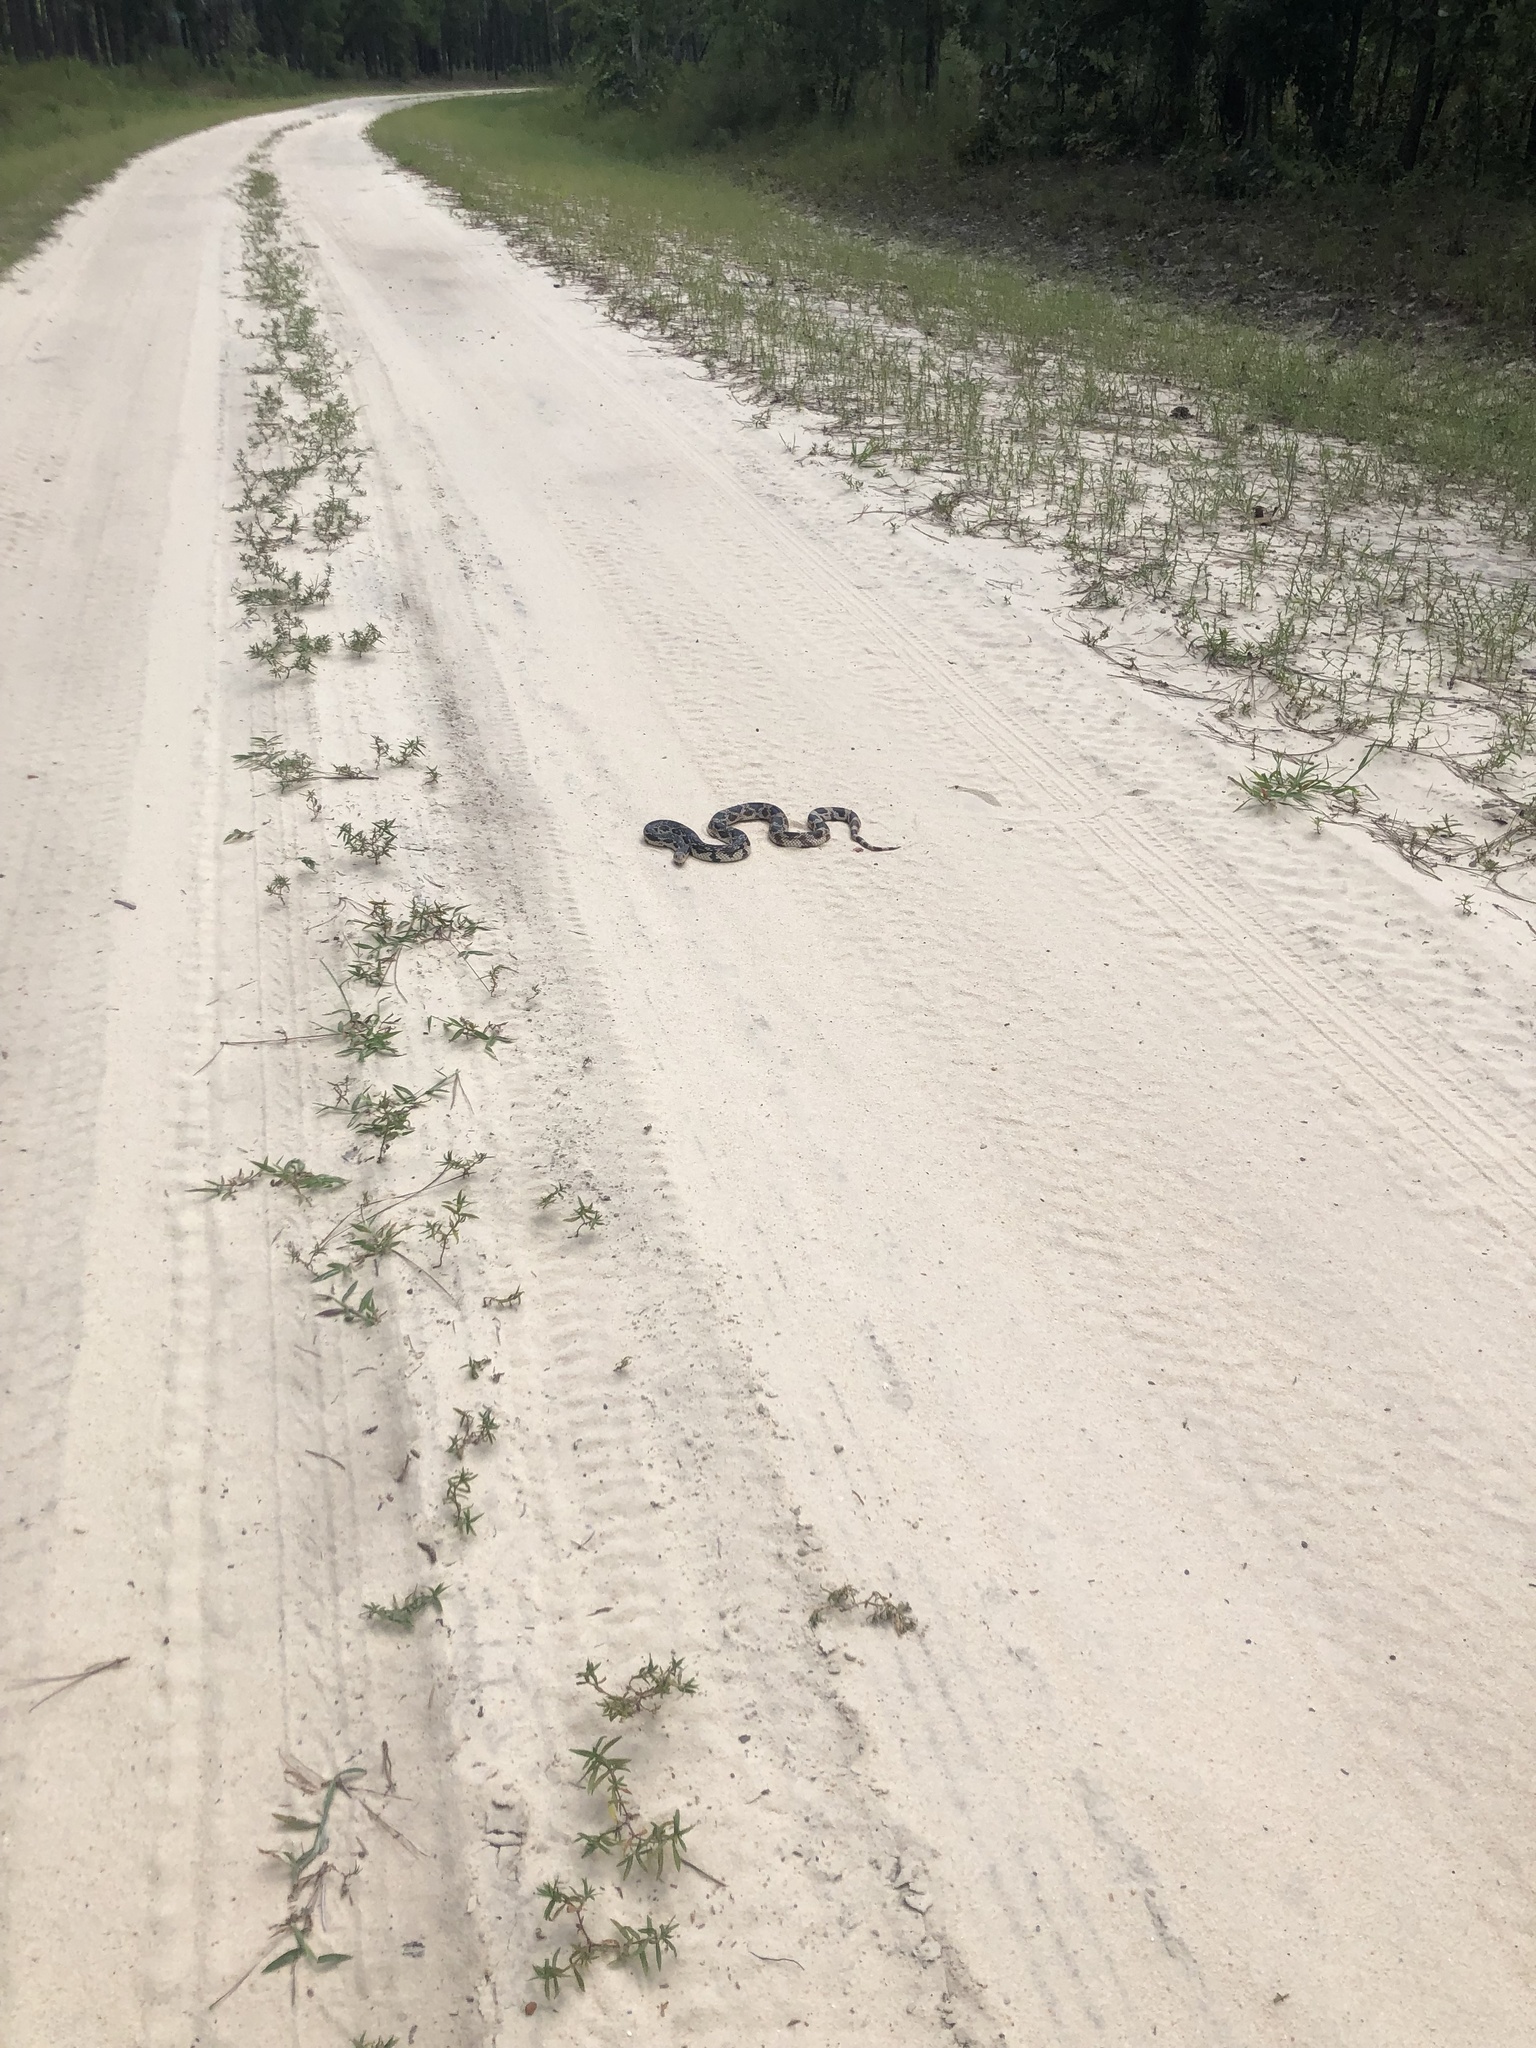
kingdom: Animalia
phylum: Chordata
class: Squamata
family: Colubridae
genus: Pituophis
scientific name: Pituophis melanoleucus
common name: Pine snake
